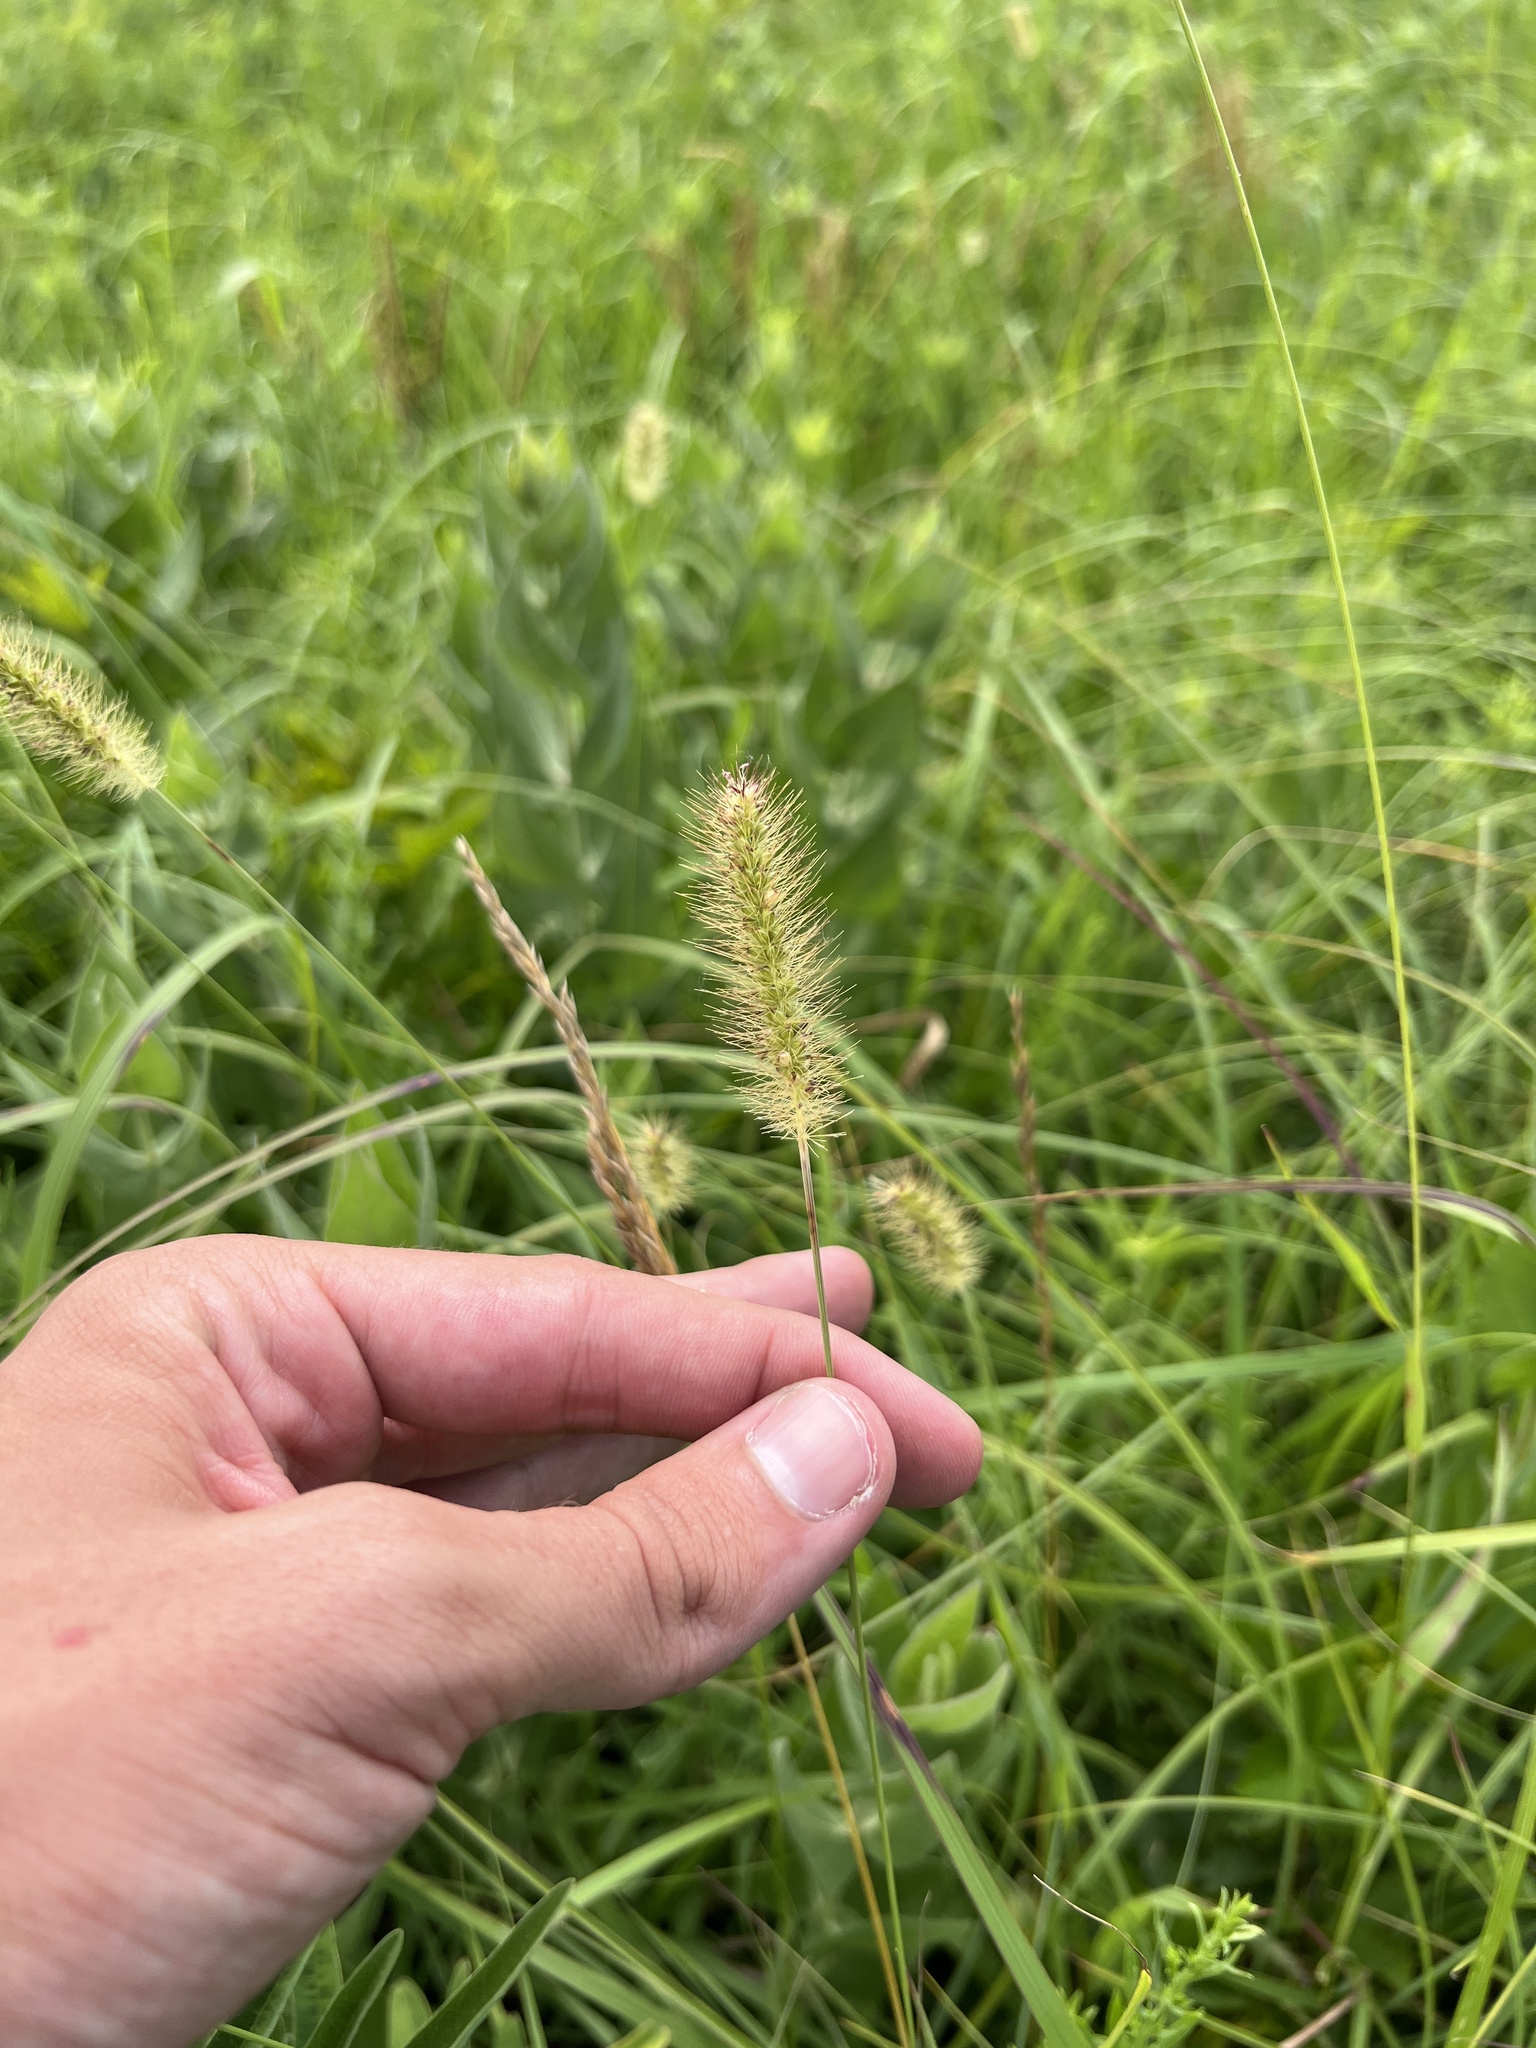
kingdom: Plantae
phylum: Tracheophyta
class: Liliopsida
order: Poales
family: Poaceae
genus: Setaria
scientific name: Setaria parviflora
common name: Knotroot bristle-grass
